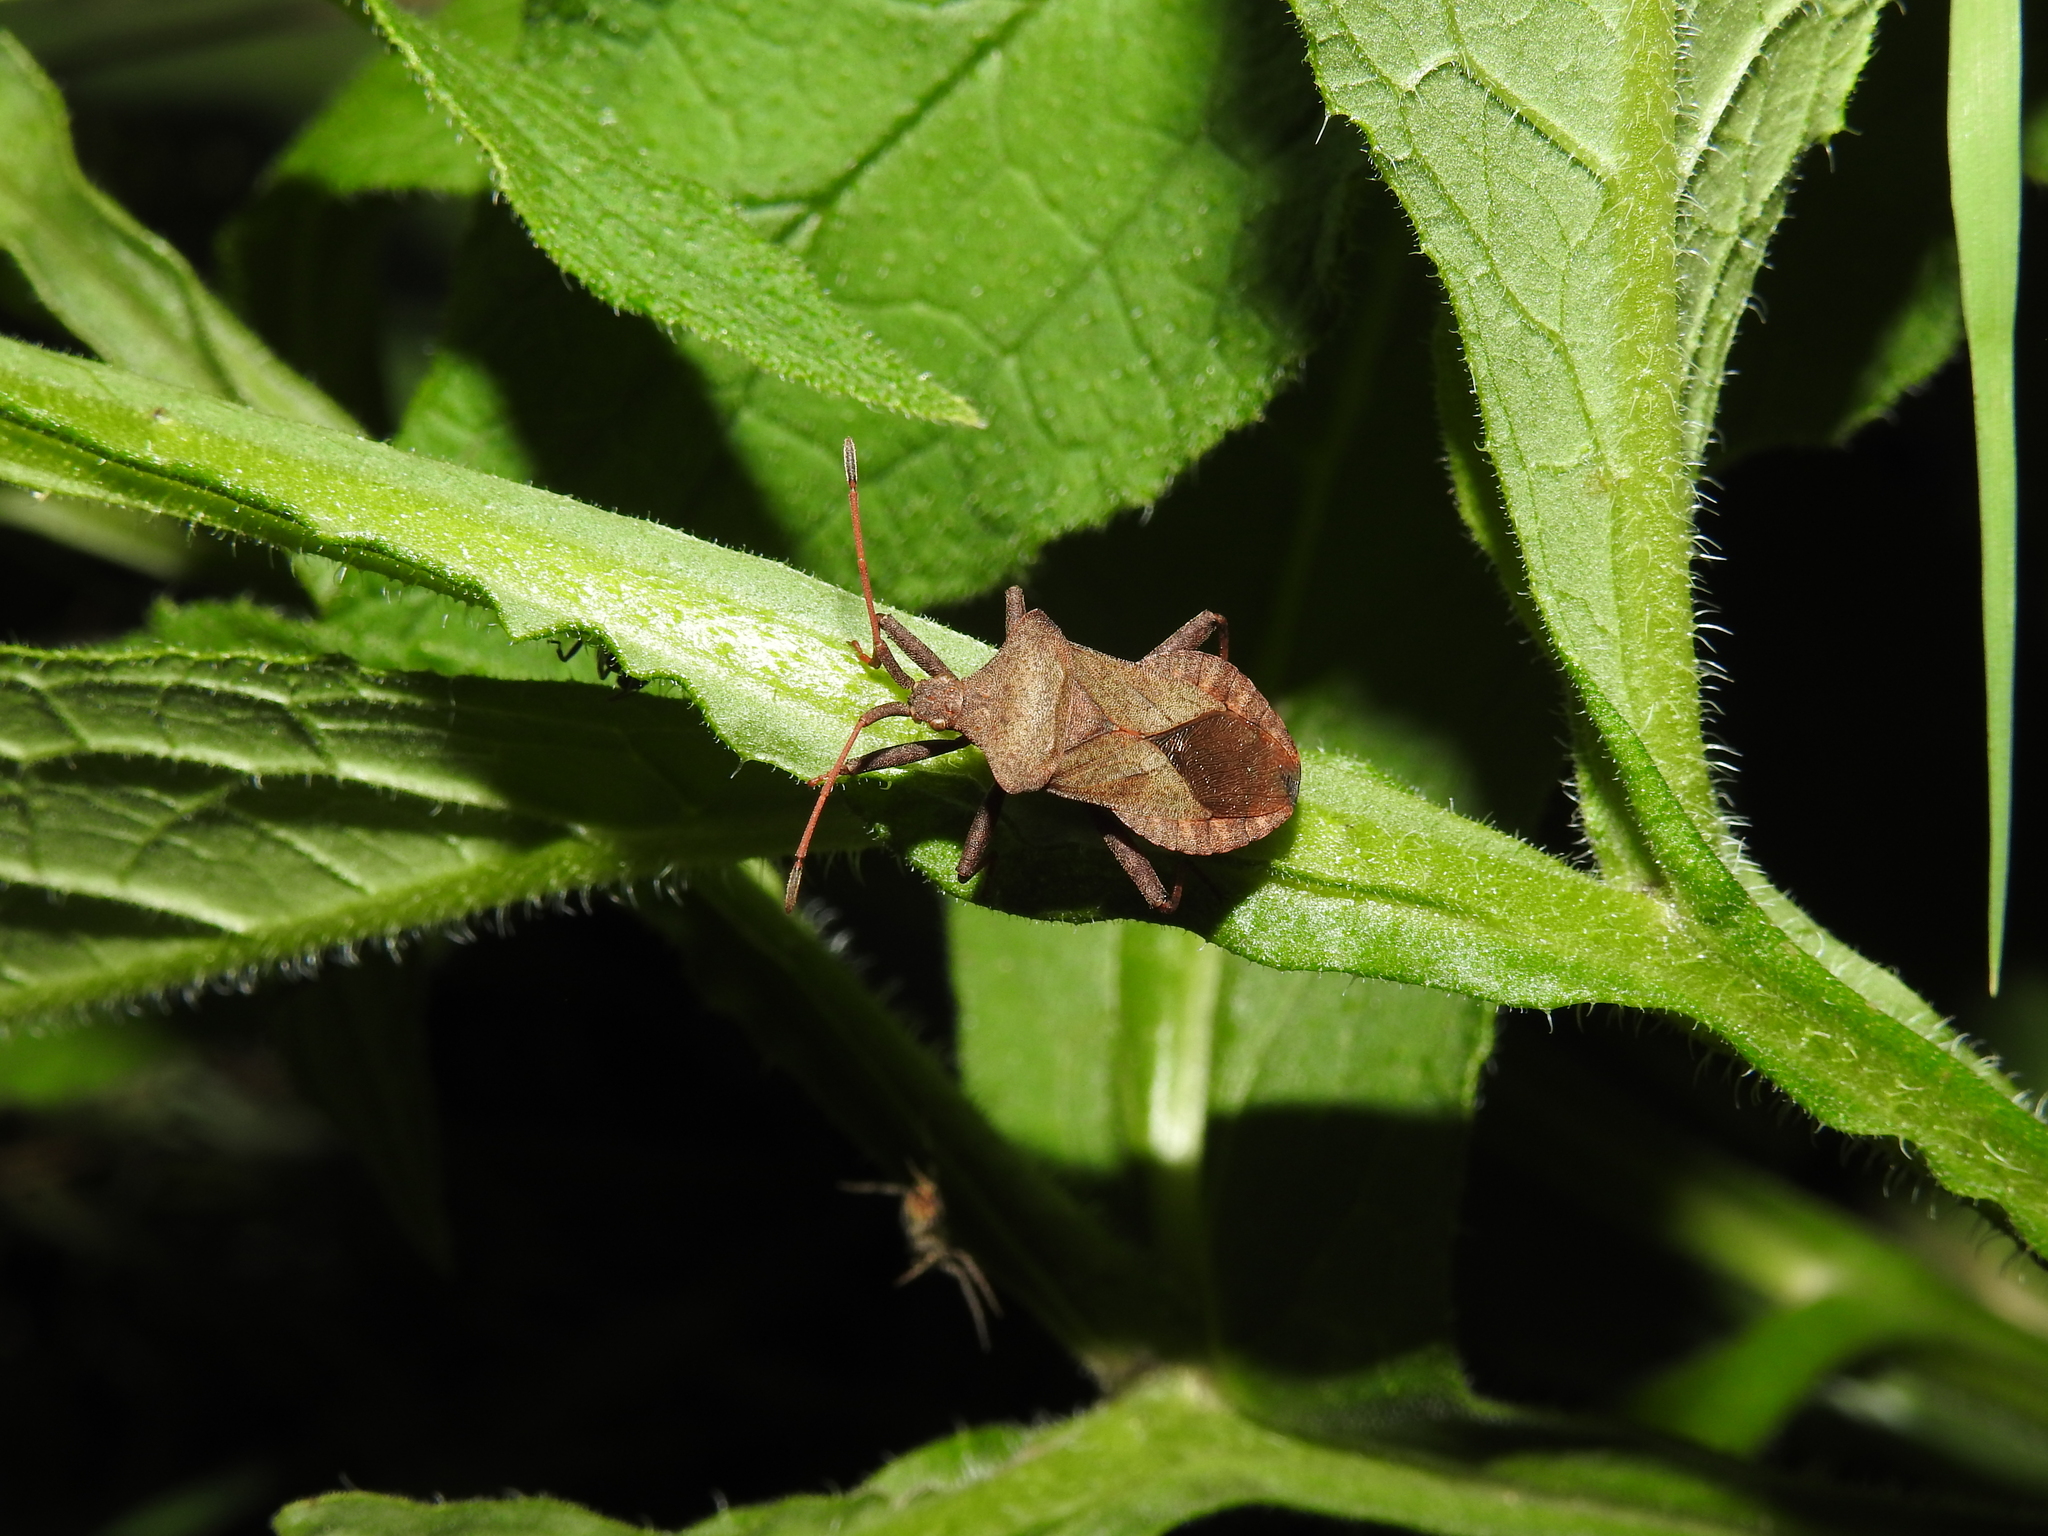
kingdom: Animalia
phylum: Arthropoda
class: Insecta
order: Hemiptera
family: Coreidae
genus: Coreus
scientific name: Coreus marginatus
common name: Dock bug
